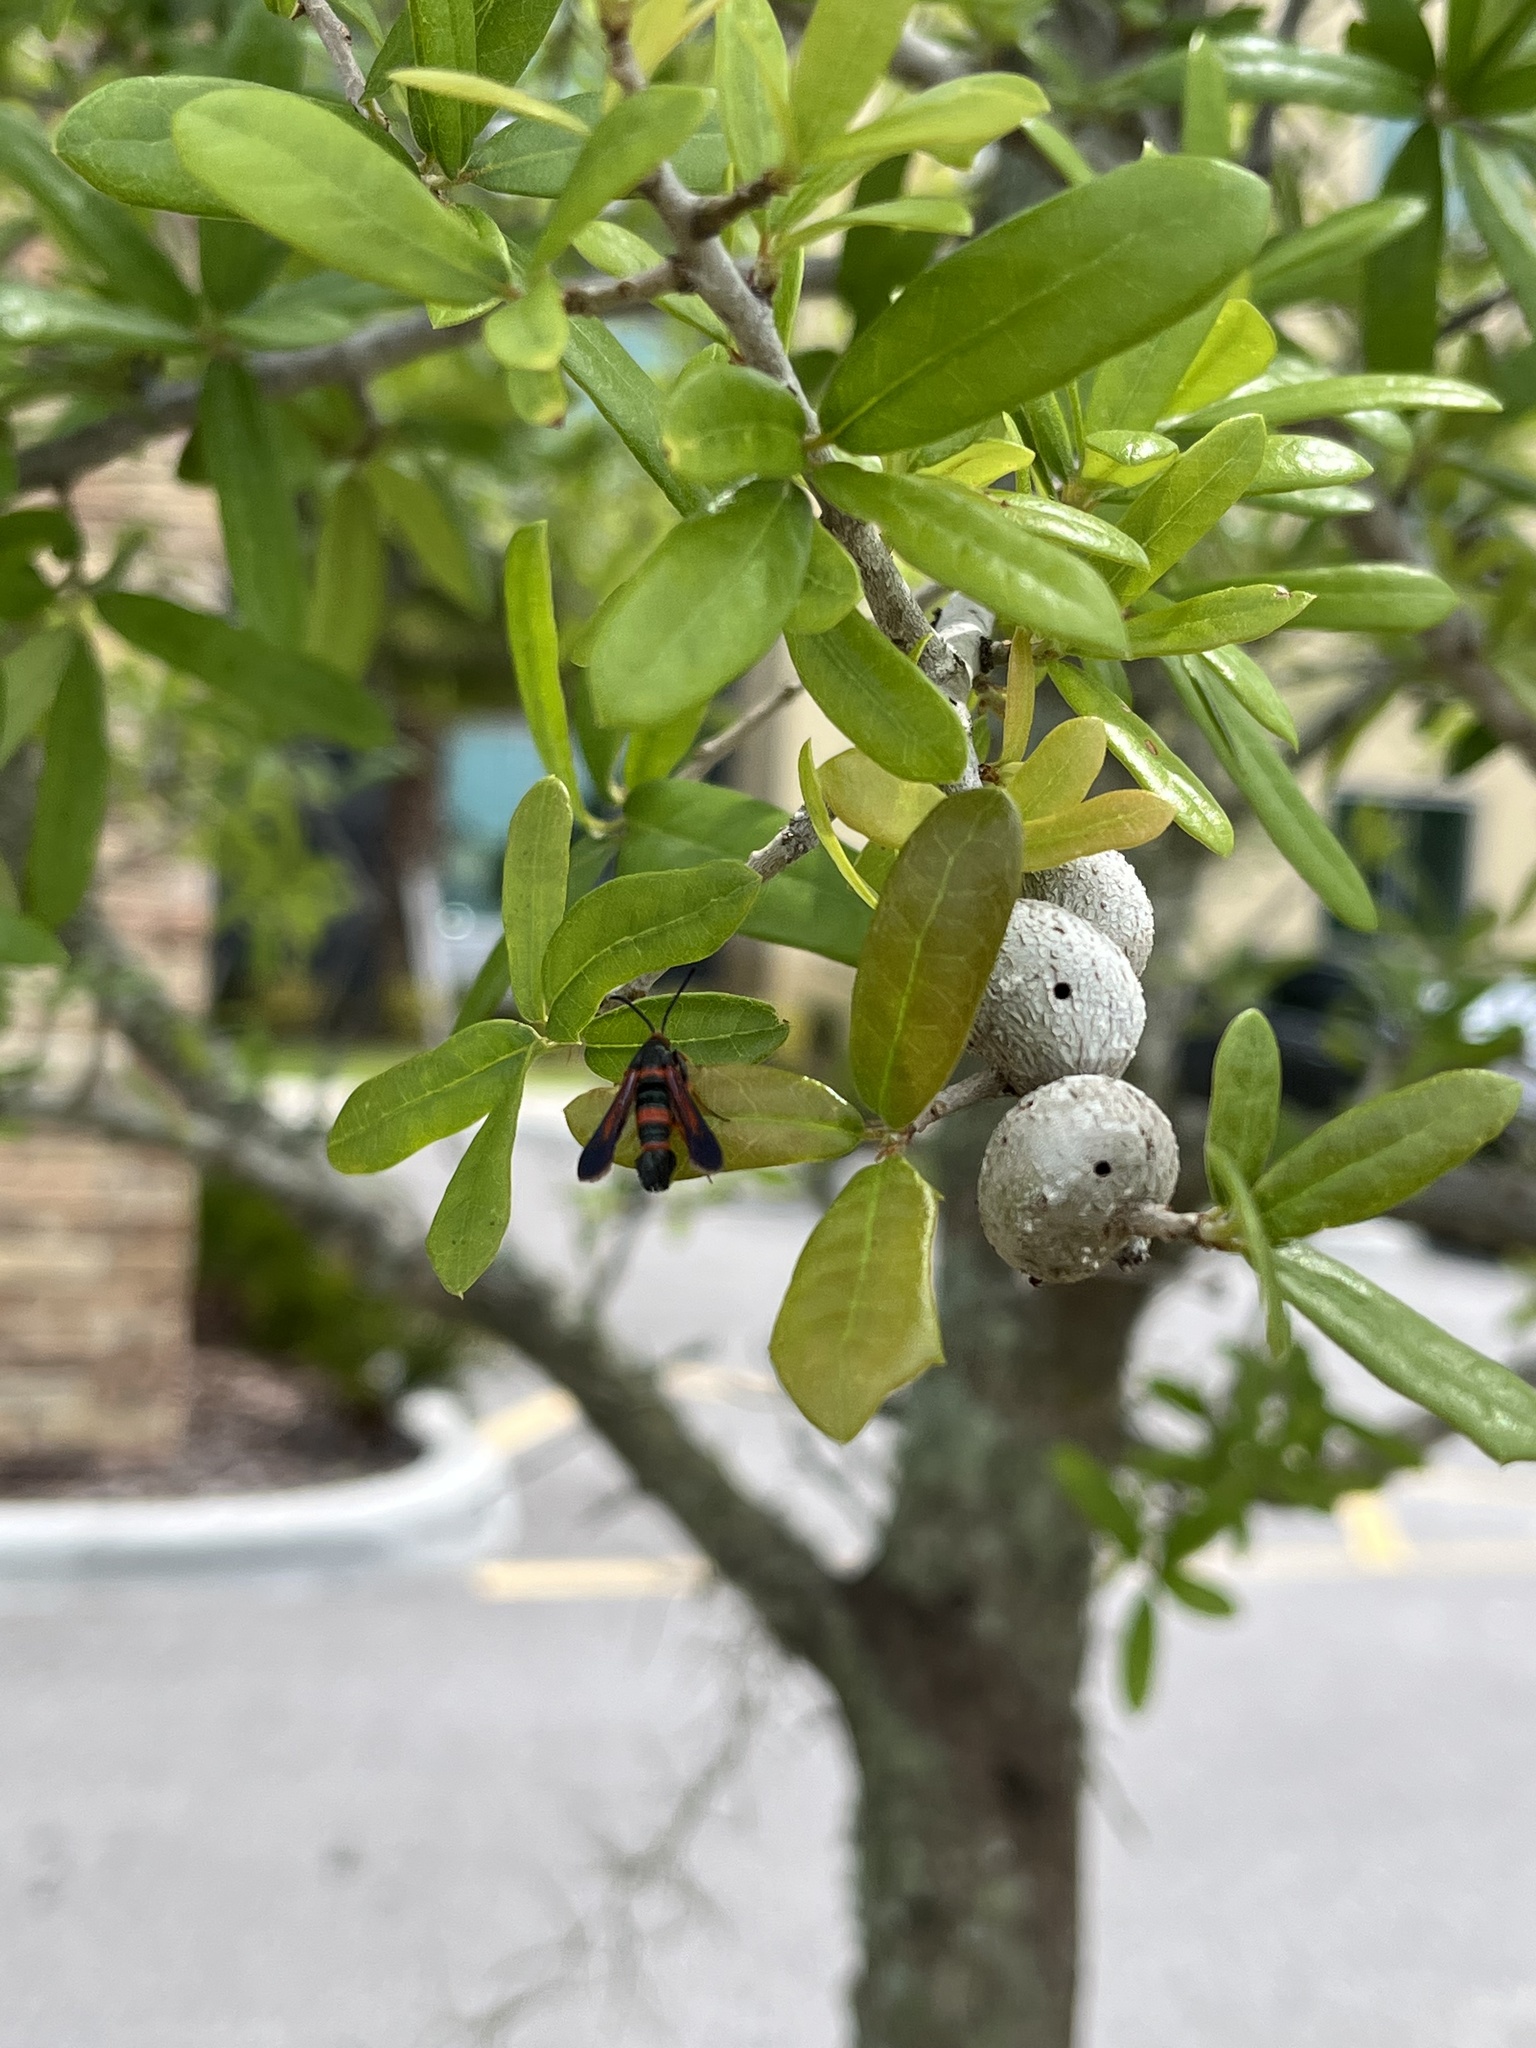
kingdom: Animalia
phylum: Arthropoda
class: Insecta
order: Hymenoptera
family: Cynipidae
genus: Callirhytis
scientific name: Callirhytis
